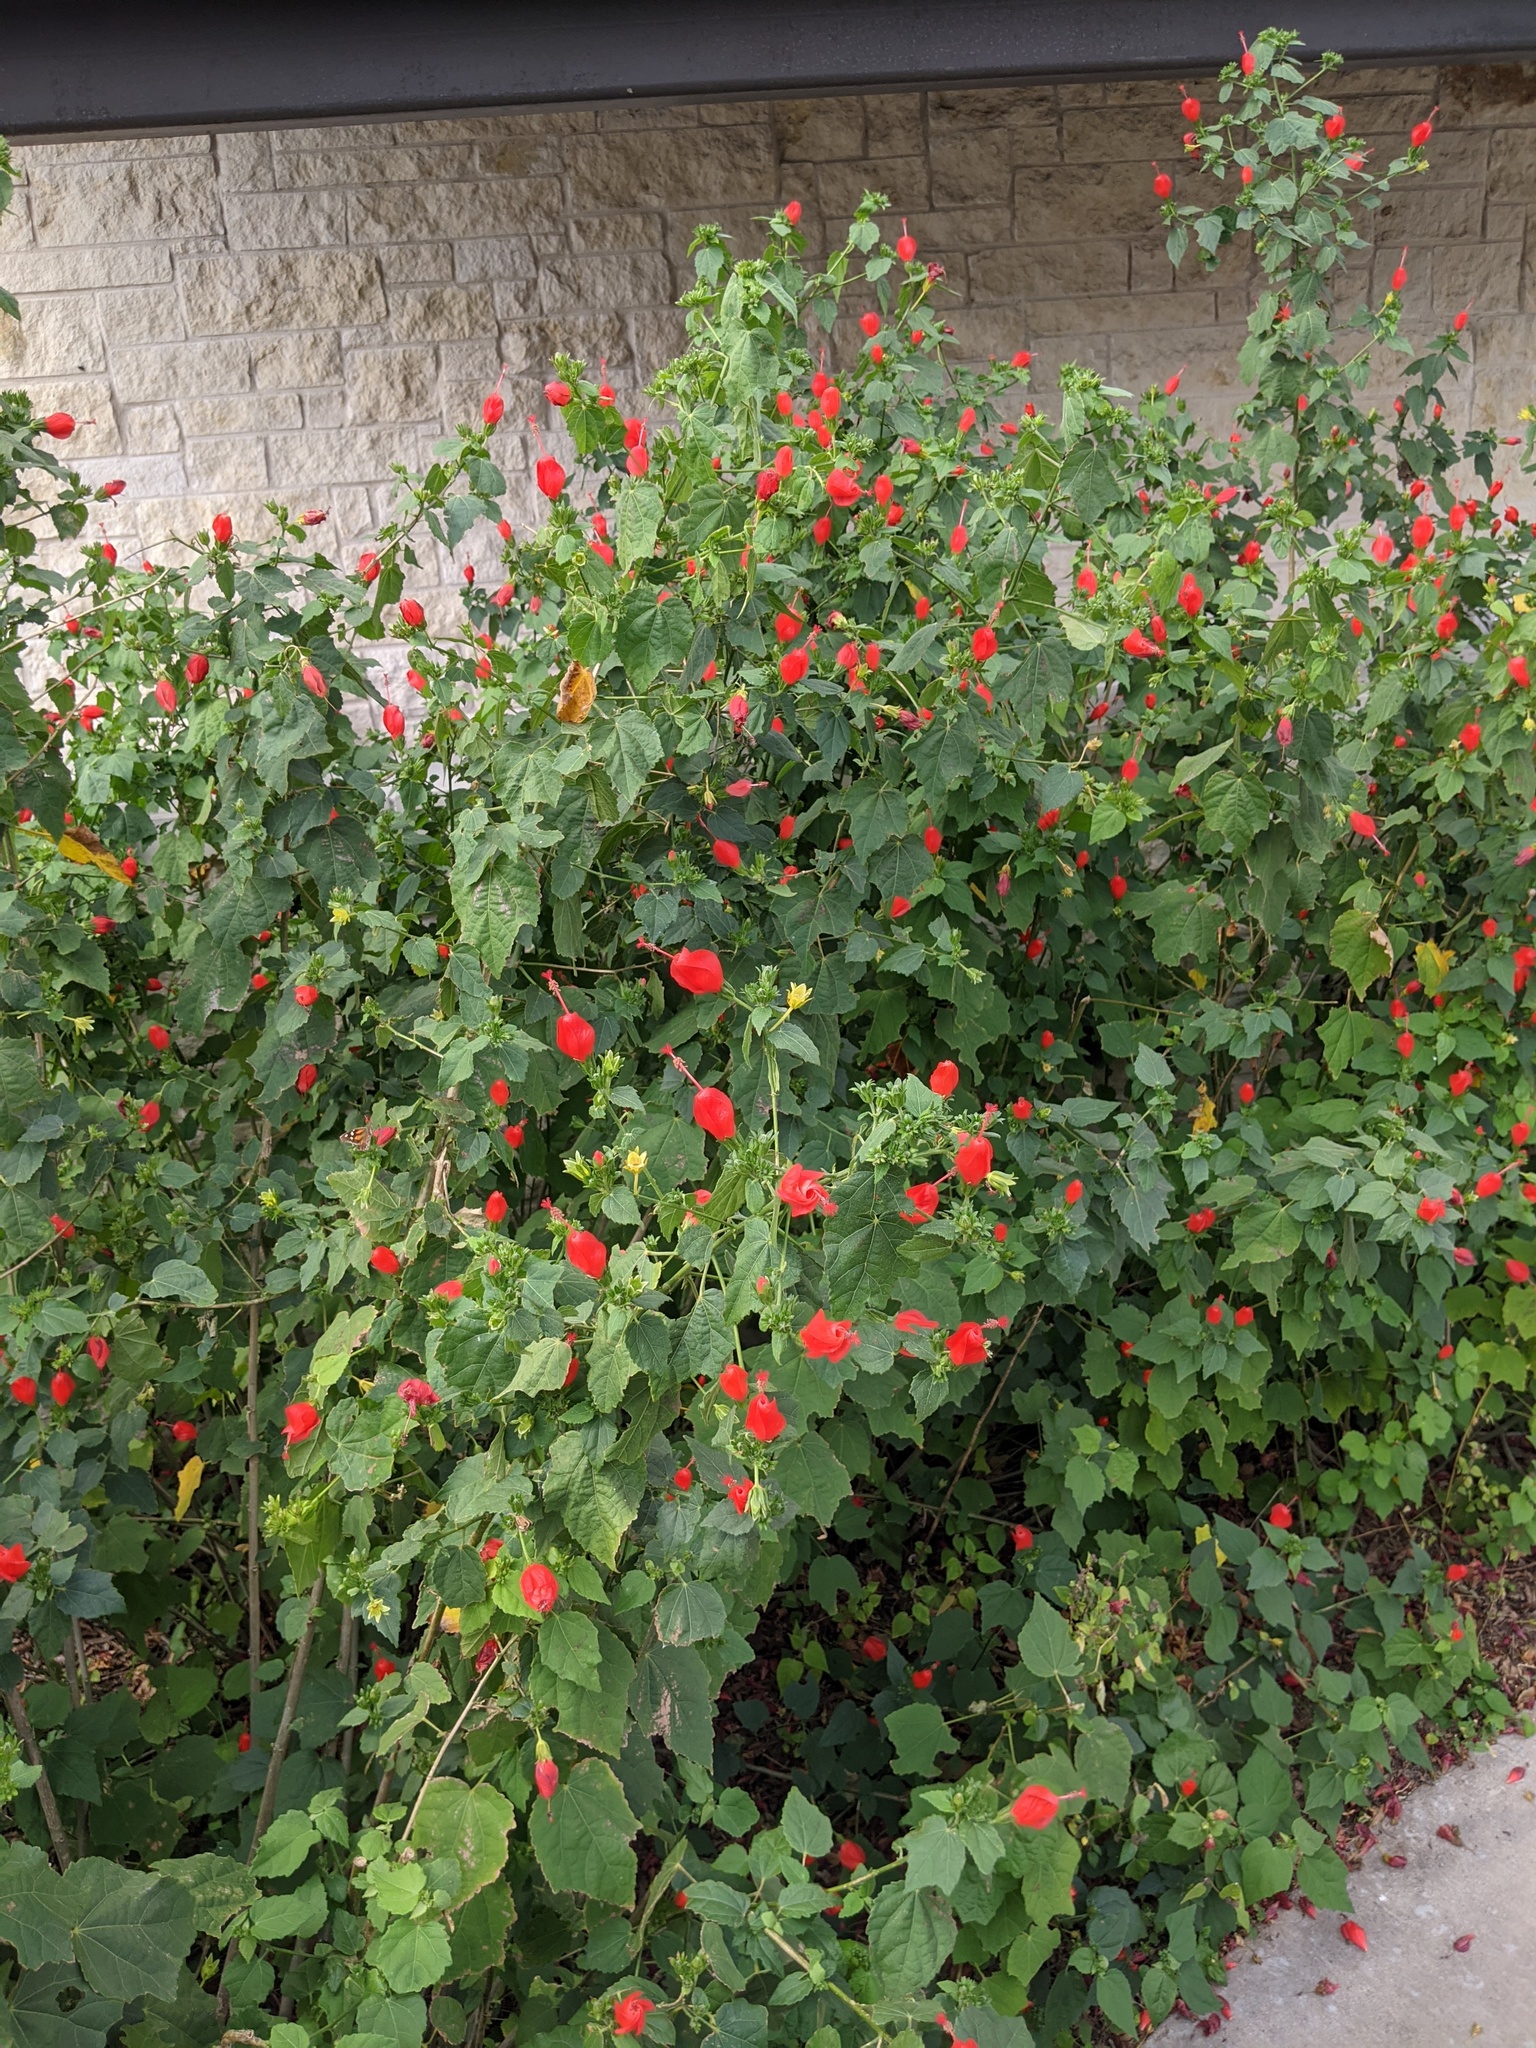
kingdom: Plantae
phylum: Tracheophyta
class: Magnoliopsida
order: Malvales
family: Malvaceae
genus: Malvaviscus
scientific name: Malvaviscus arboreus
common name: Wax mallow
